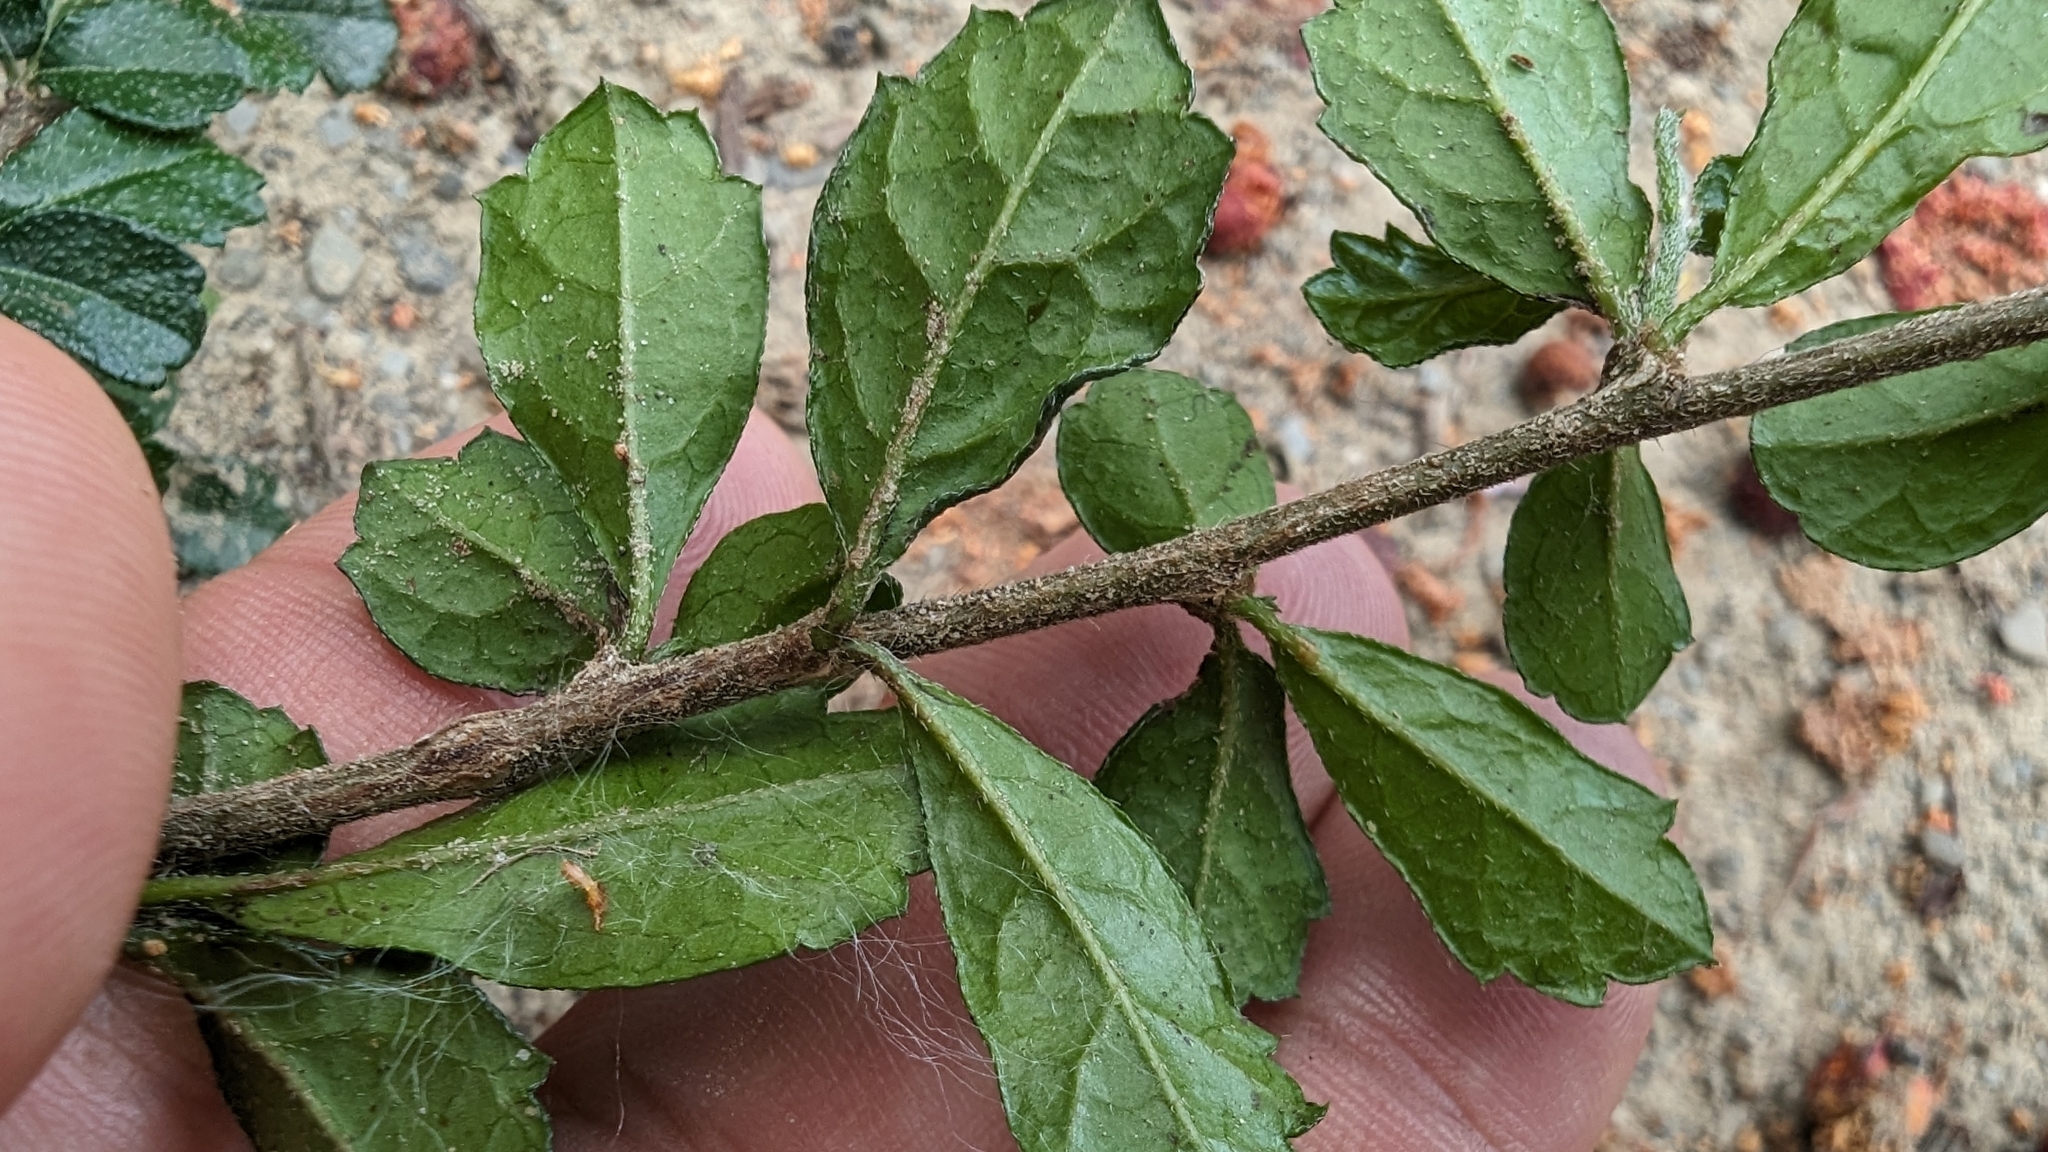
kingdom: Plantae
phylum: Tracheophyta
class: Magnoliopsida
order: Boraginales
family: Ehretiaceae
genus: Ehretia
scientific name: Ehretia microphylla
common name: Fukien-tea
